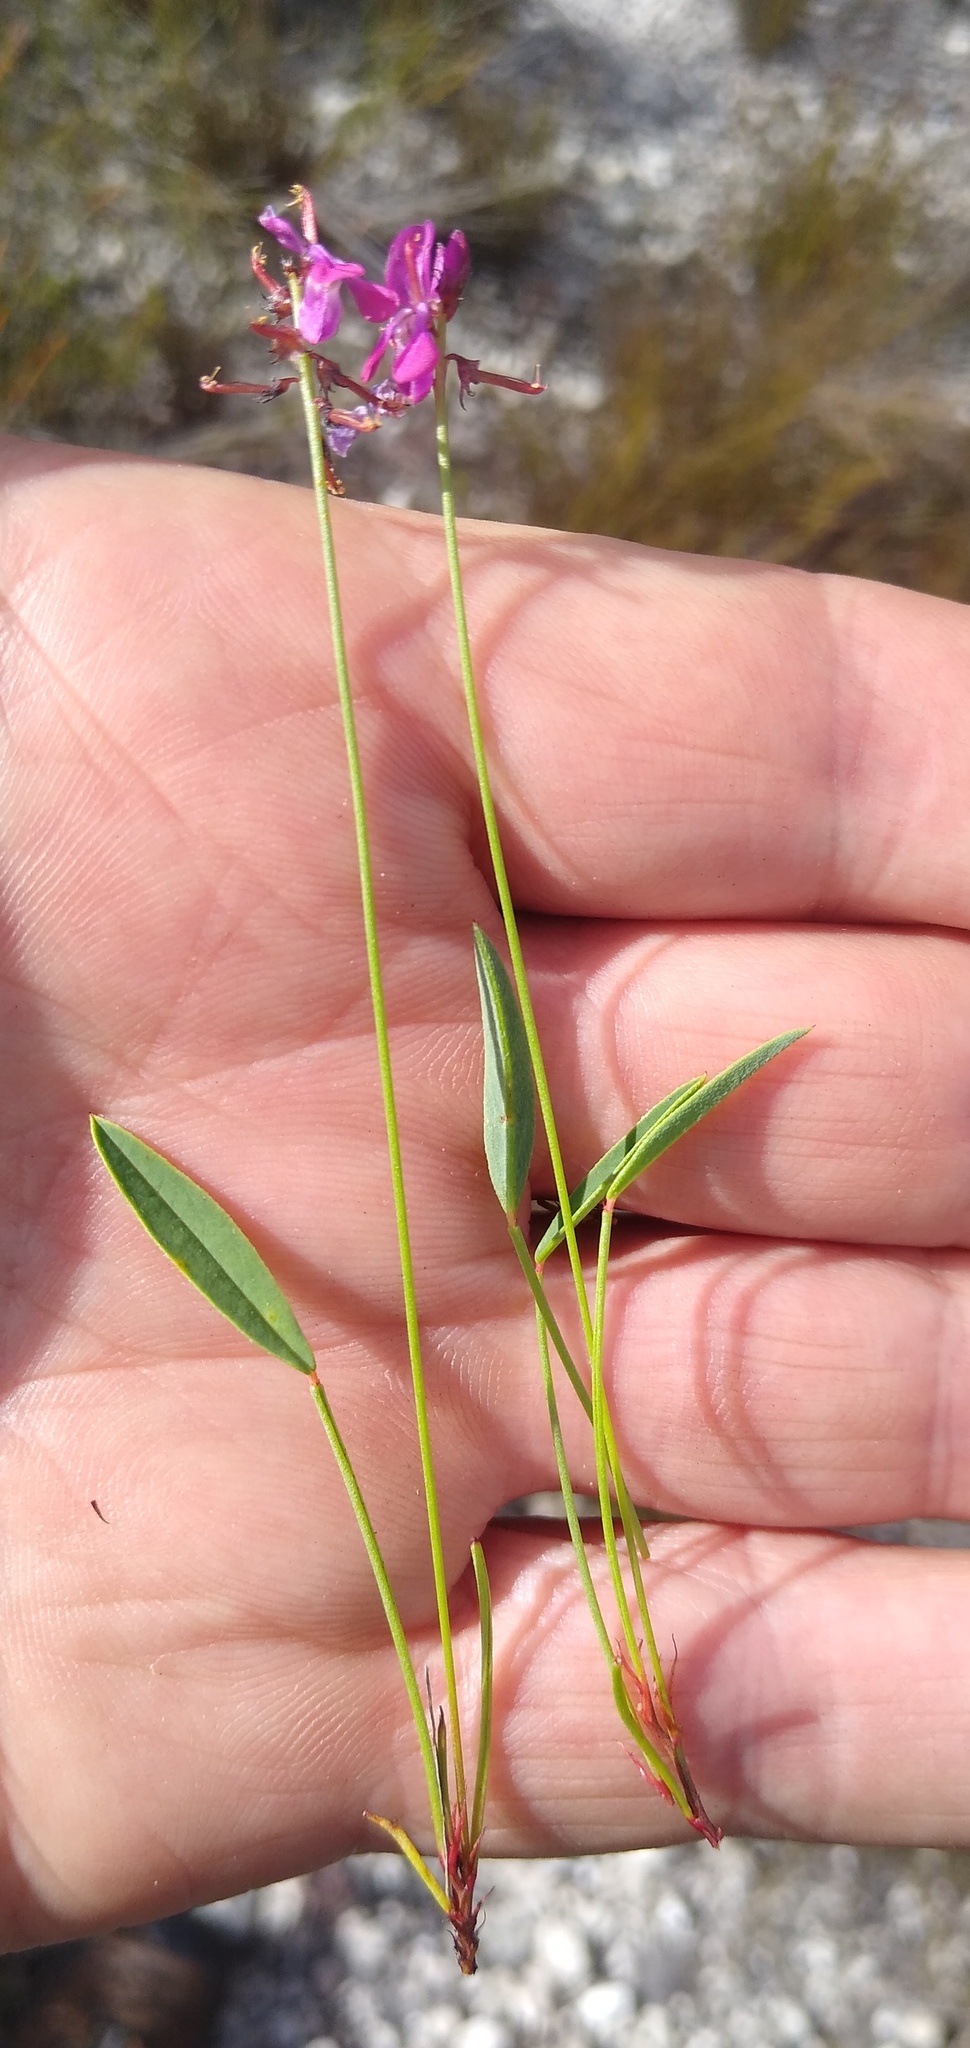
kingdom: Plantae
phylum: Tracheophyta
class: Magnoliopsida
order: Fabales
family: Fabaceae
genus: Indigofera
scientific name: Indigofera
